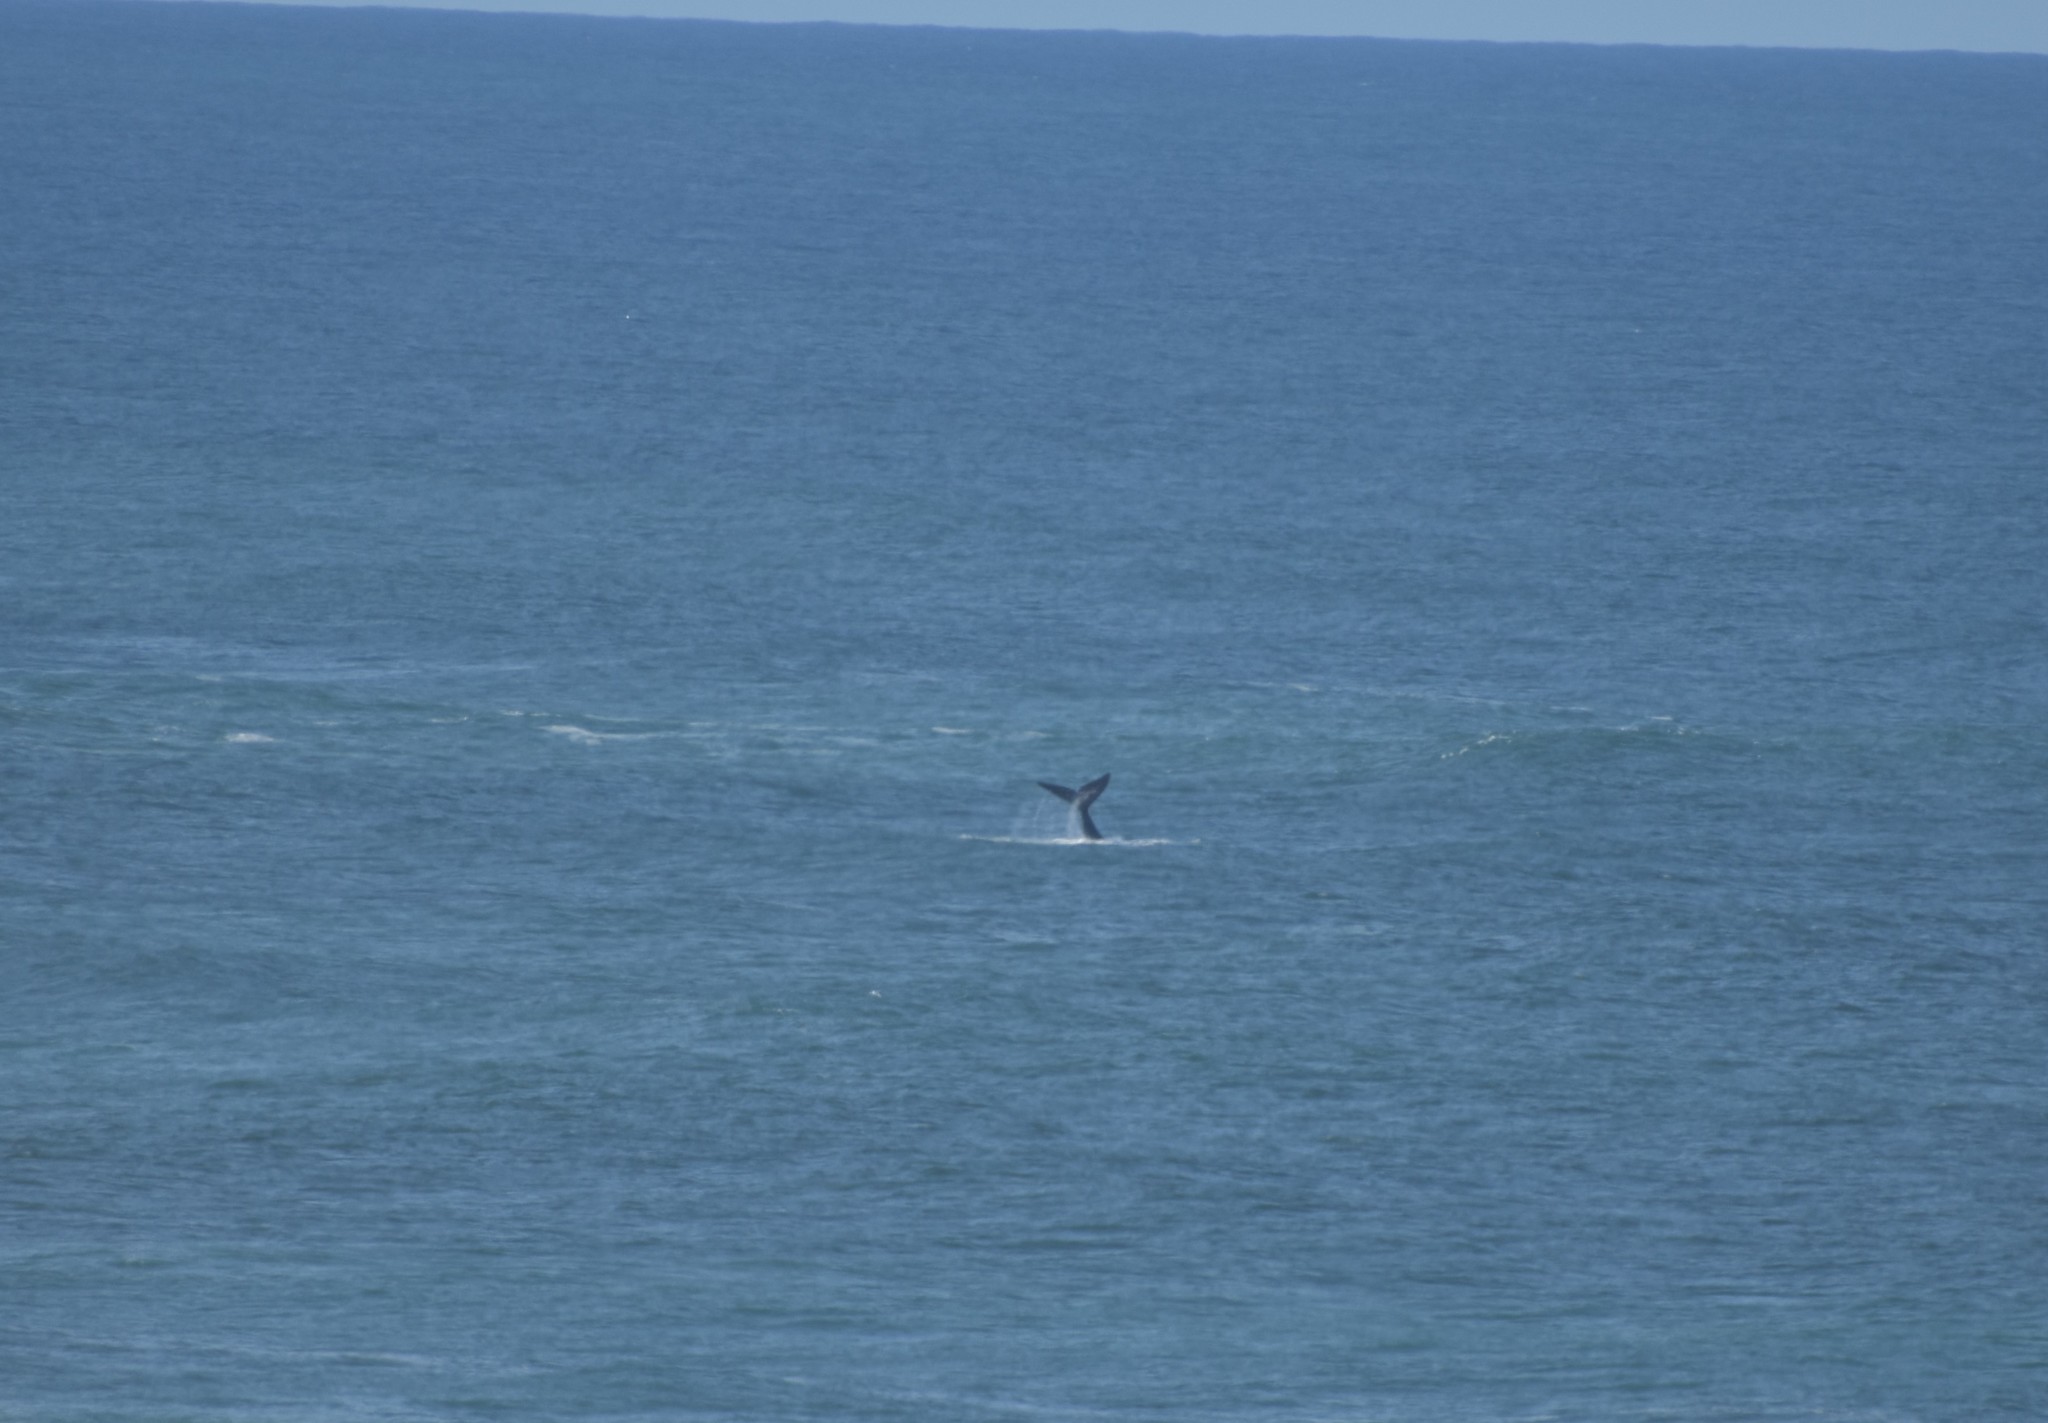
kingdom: Animalia
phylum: Chordata
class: Mammalia
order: Cetacea
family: Balaenidae
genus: Eubalaena
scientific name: Eubalaena australis
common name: Southern right whale
